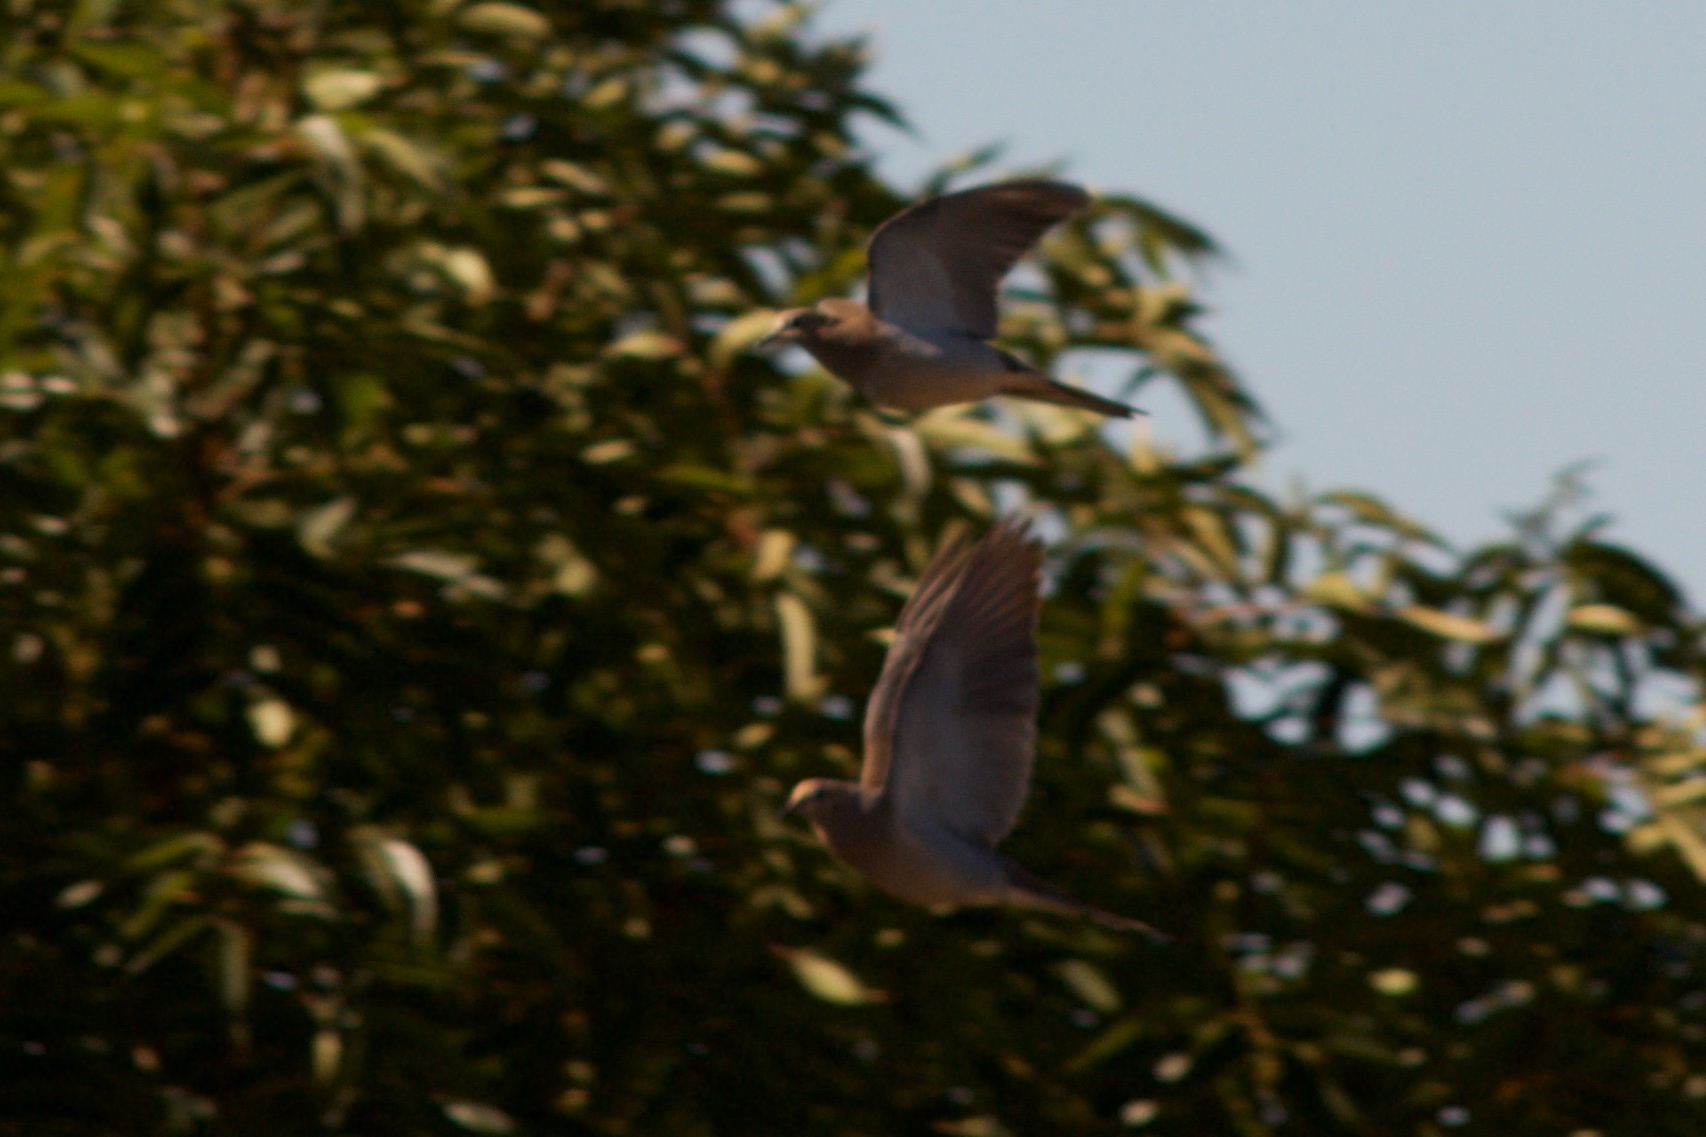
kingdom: Animalia
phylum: Chordata
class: Aves
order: Columbiformes
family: Columbidae
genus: Zenaida
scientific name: Zenaida macroura
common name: Mourning dove
